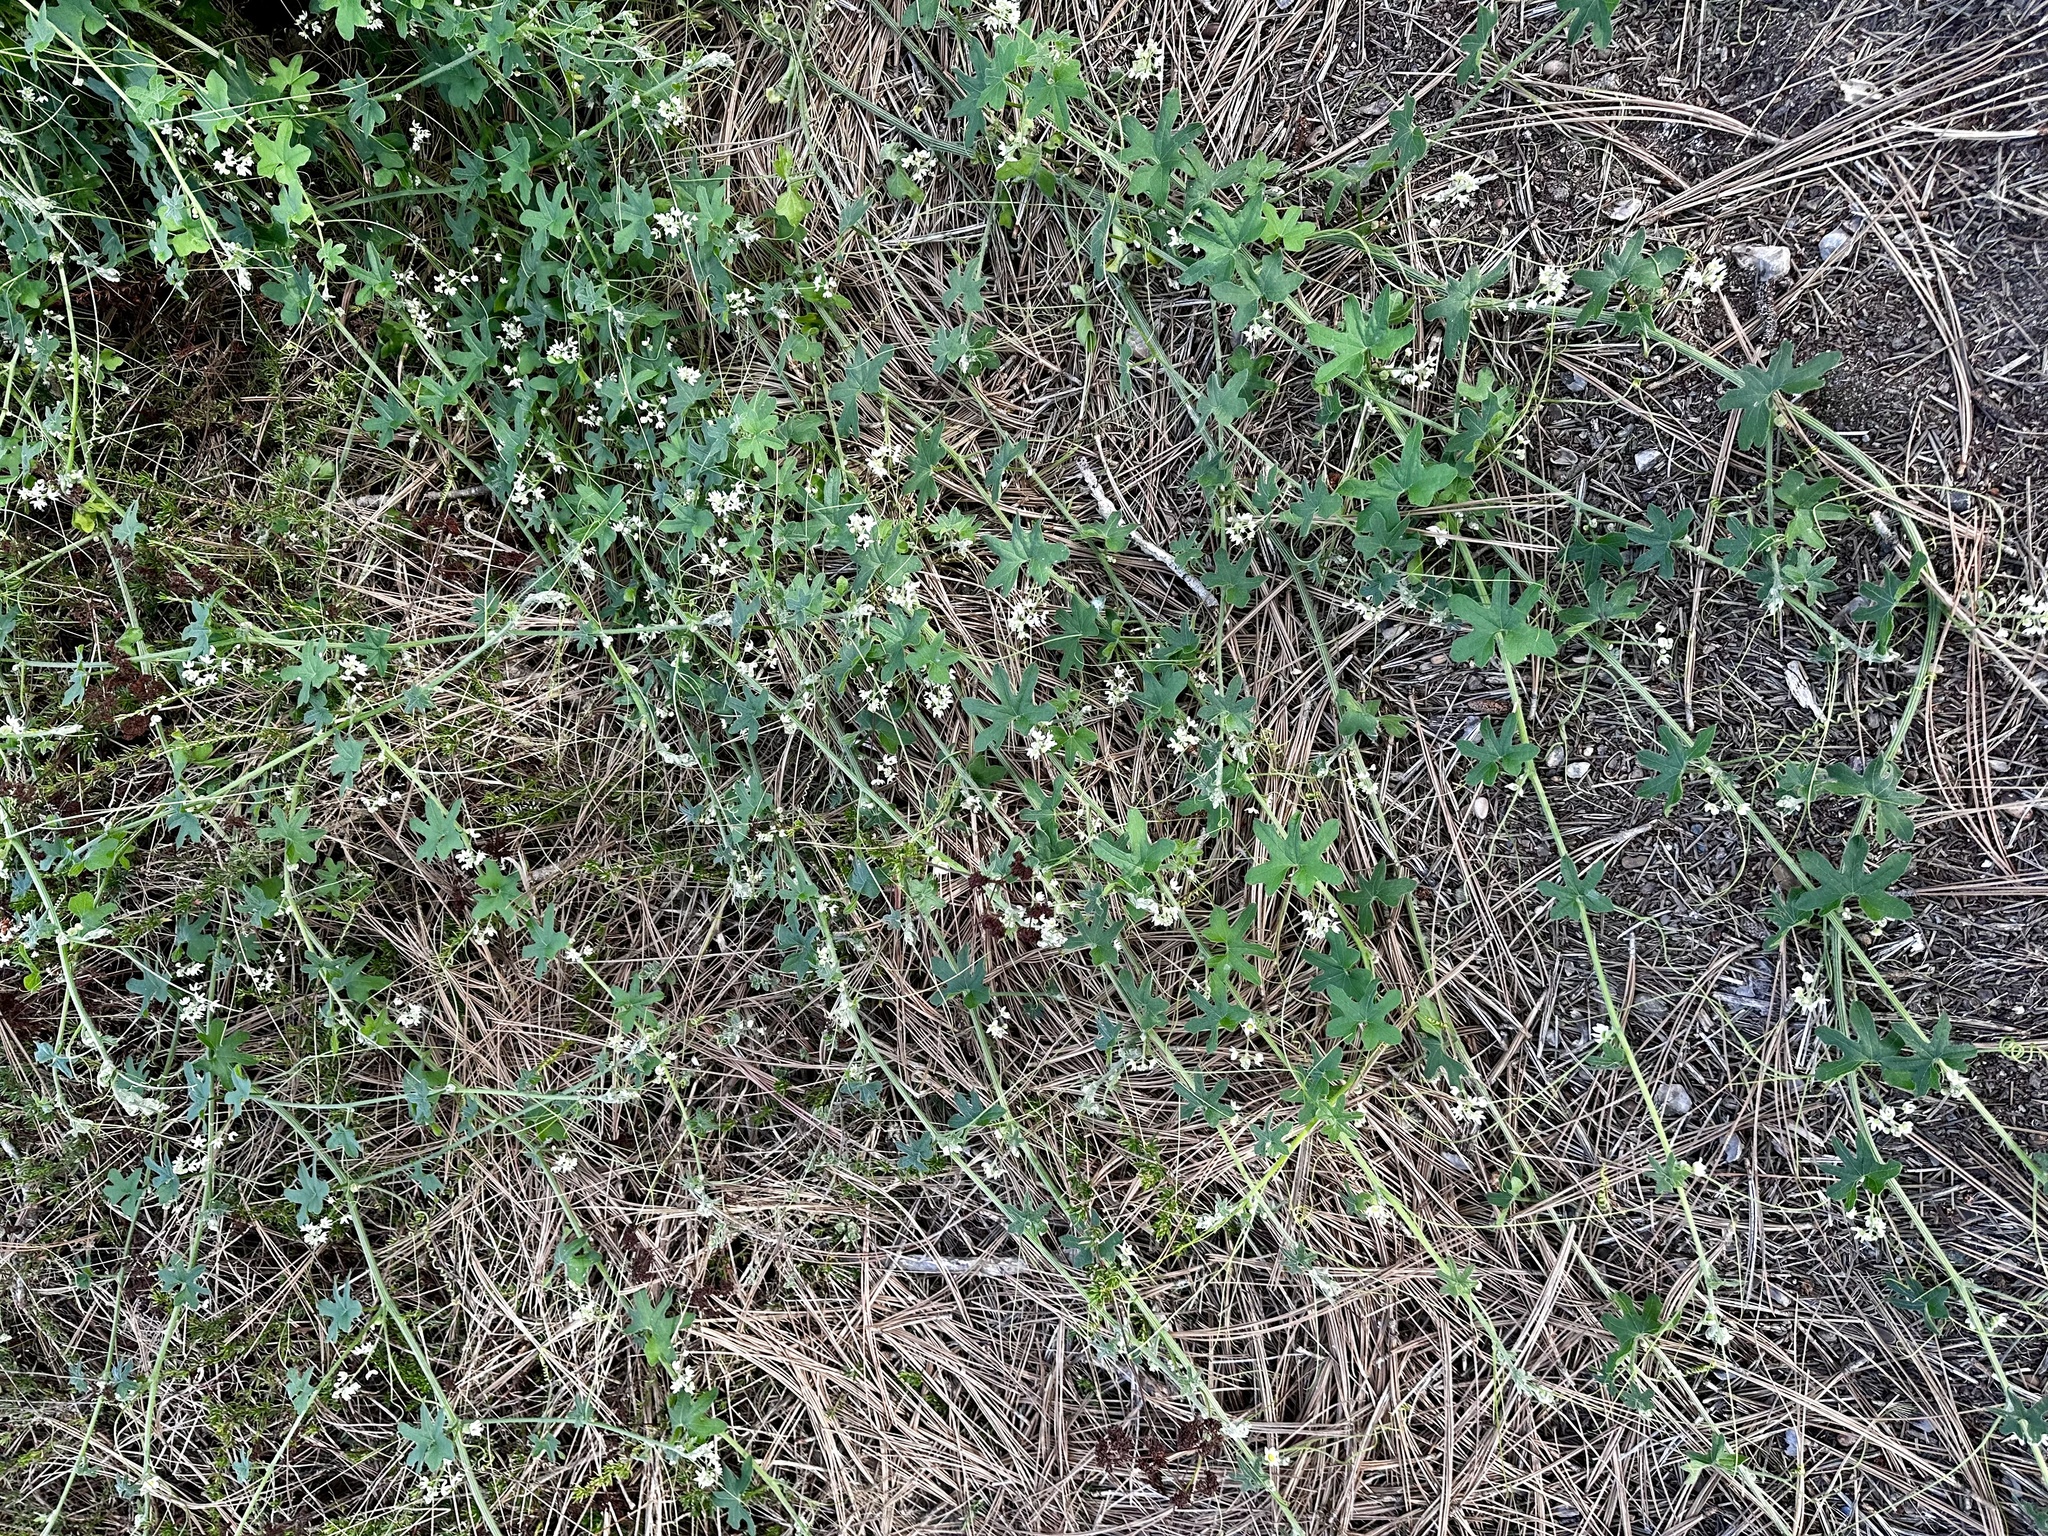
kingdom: Plantae
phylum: Tracheophyta
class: Magnoliopsida
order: Cucurbitales
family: Cucurbitaceae
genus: Marah
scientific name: Marah macrocarpa
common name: Cucamonga manroot
